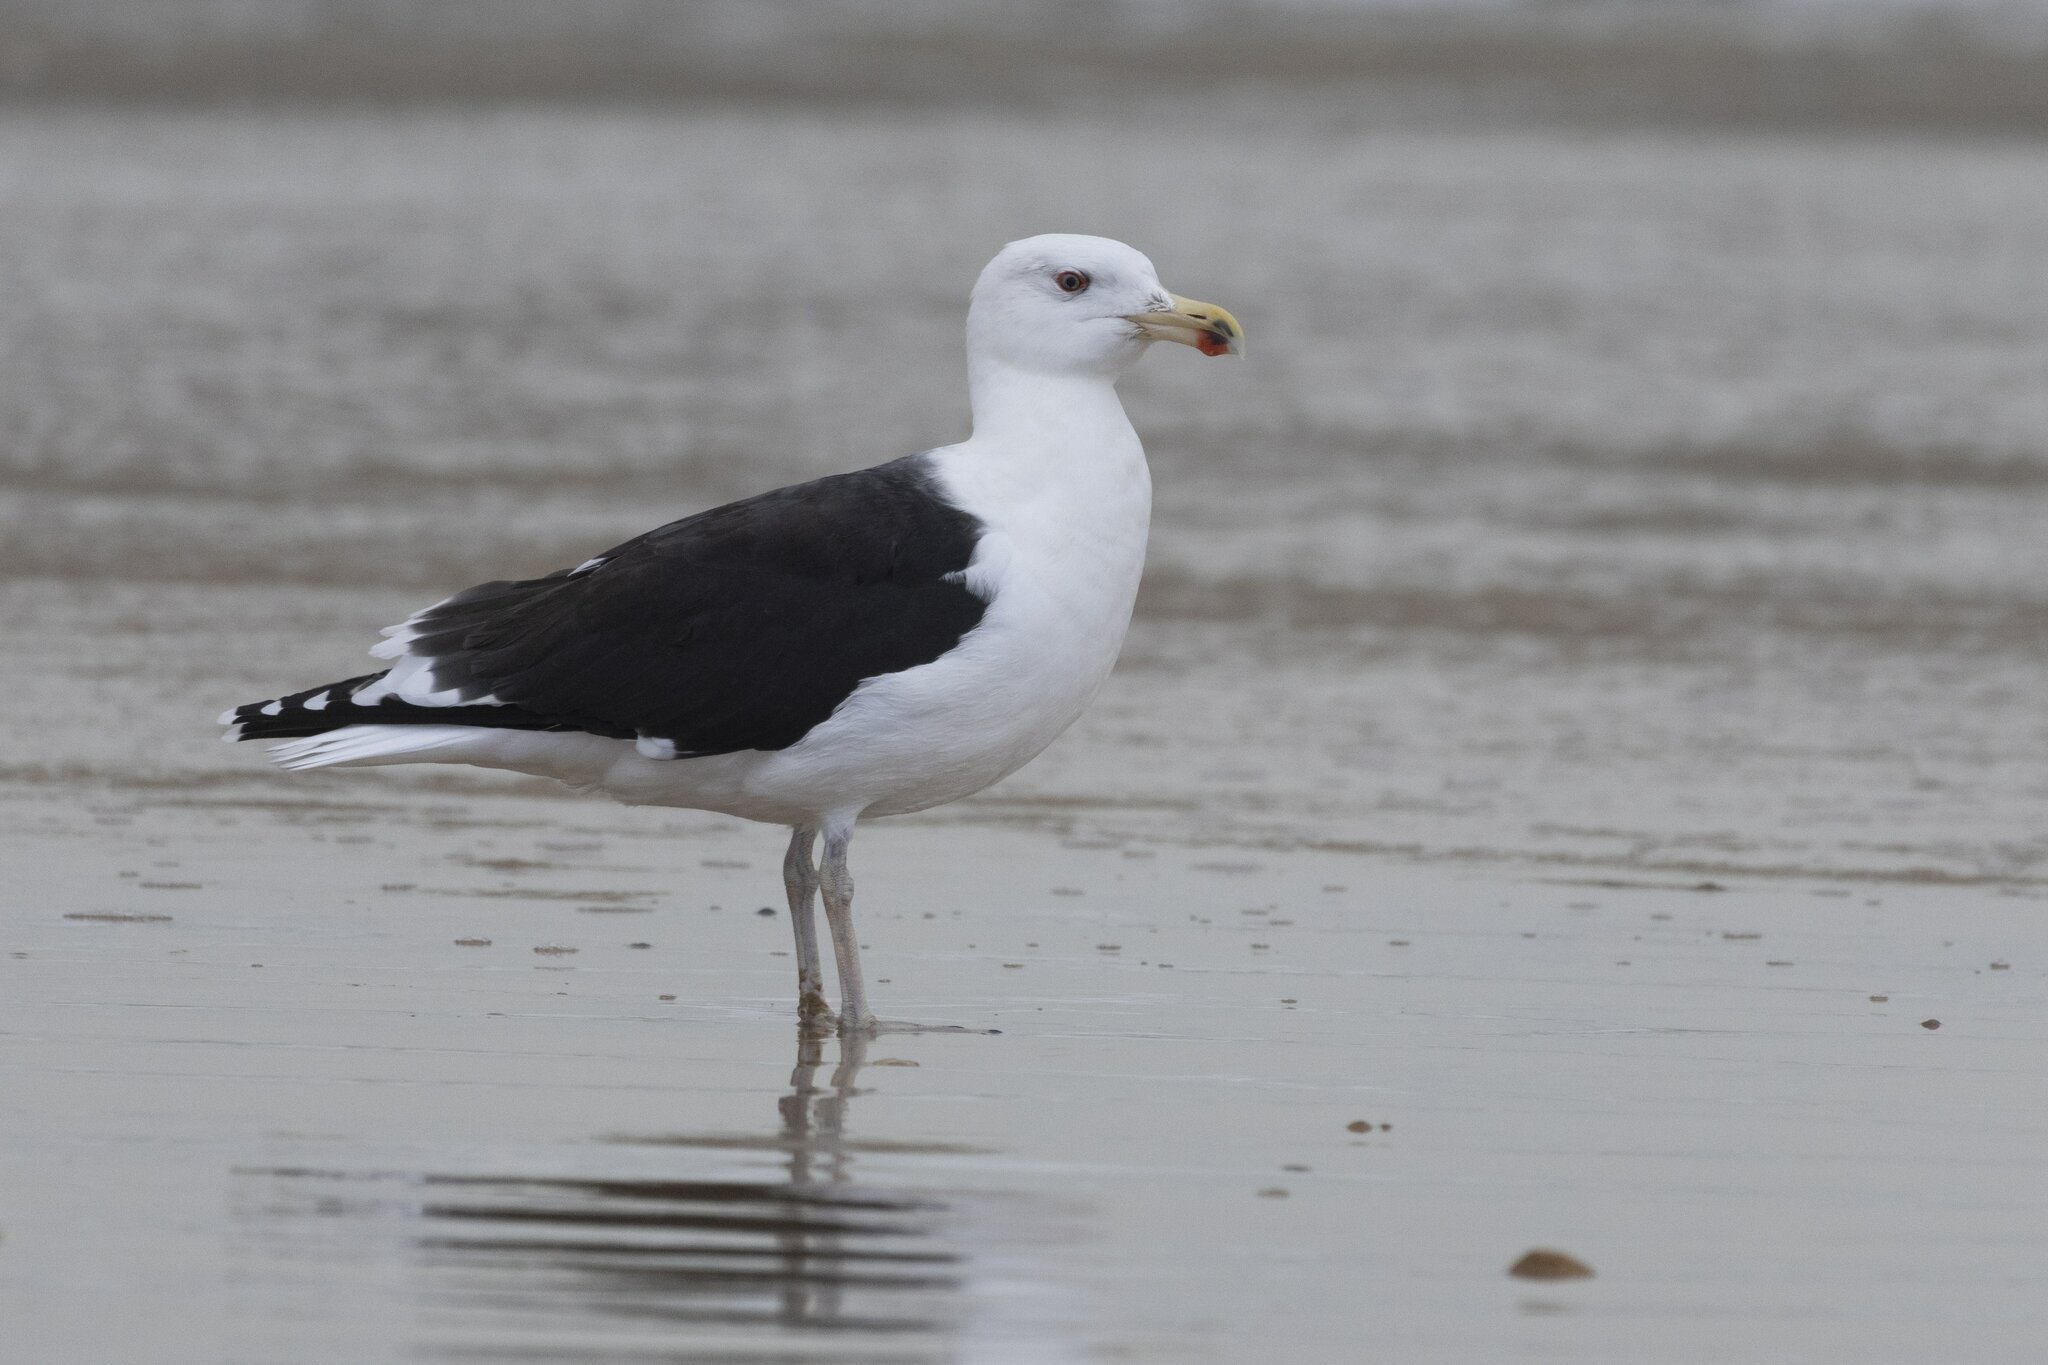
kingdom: Animalia
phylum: Chordata
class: Aves
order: Charadriiformes
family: Laridae
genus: Larus
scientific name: Larus marinus
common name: Great black-backed gull
